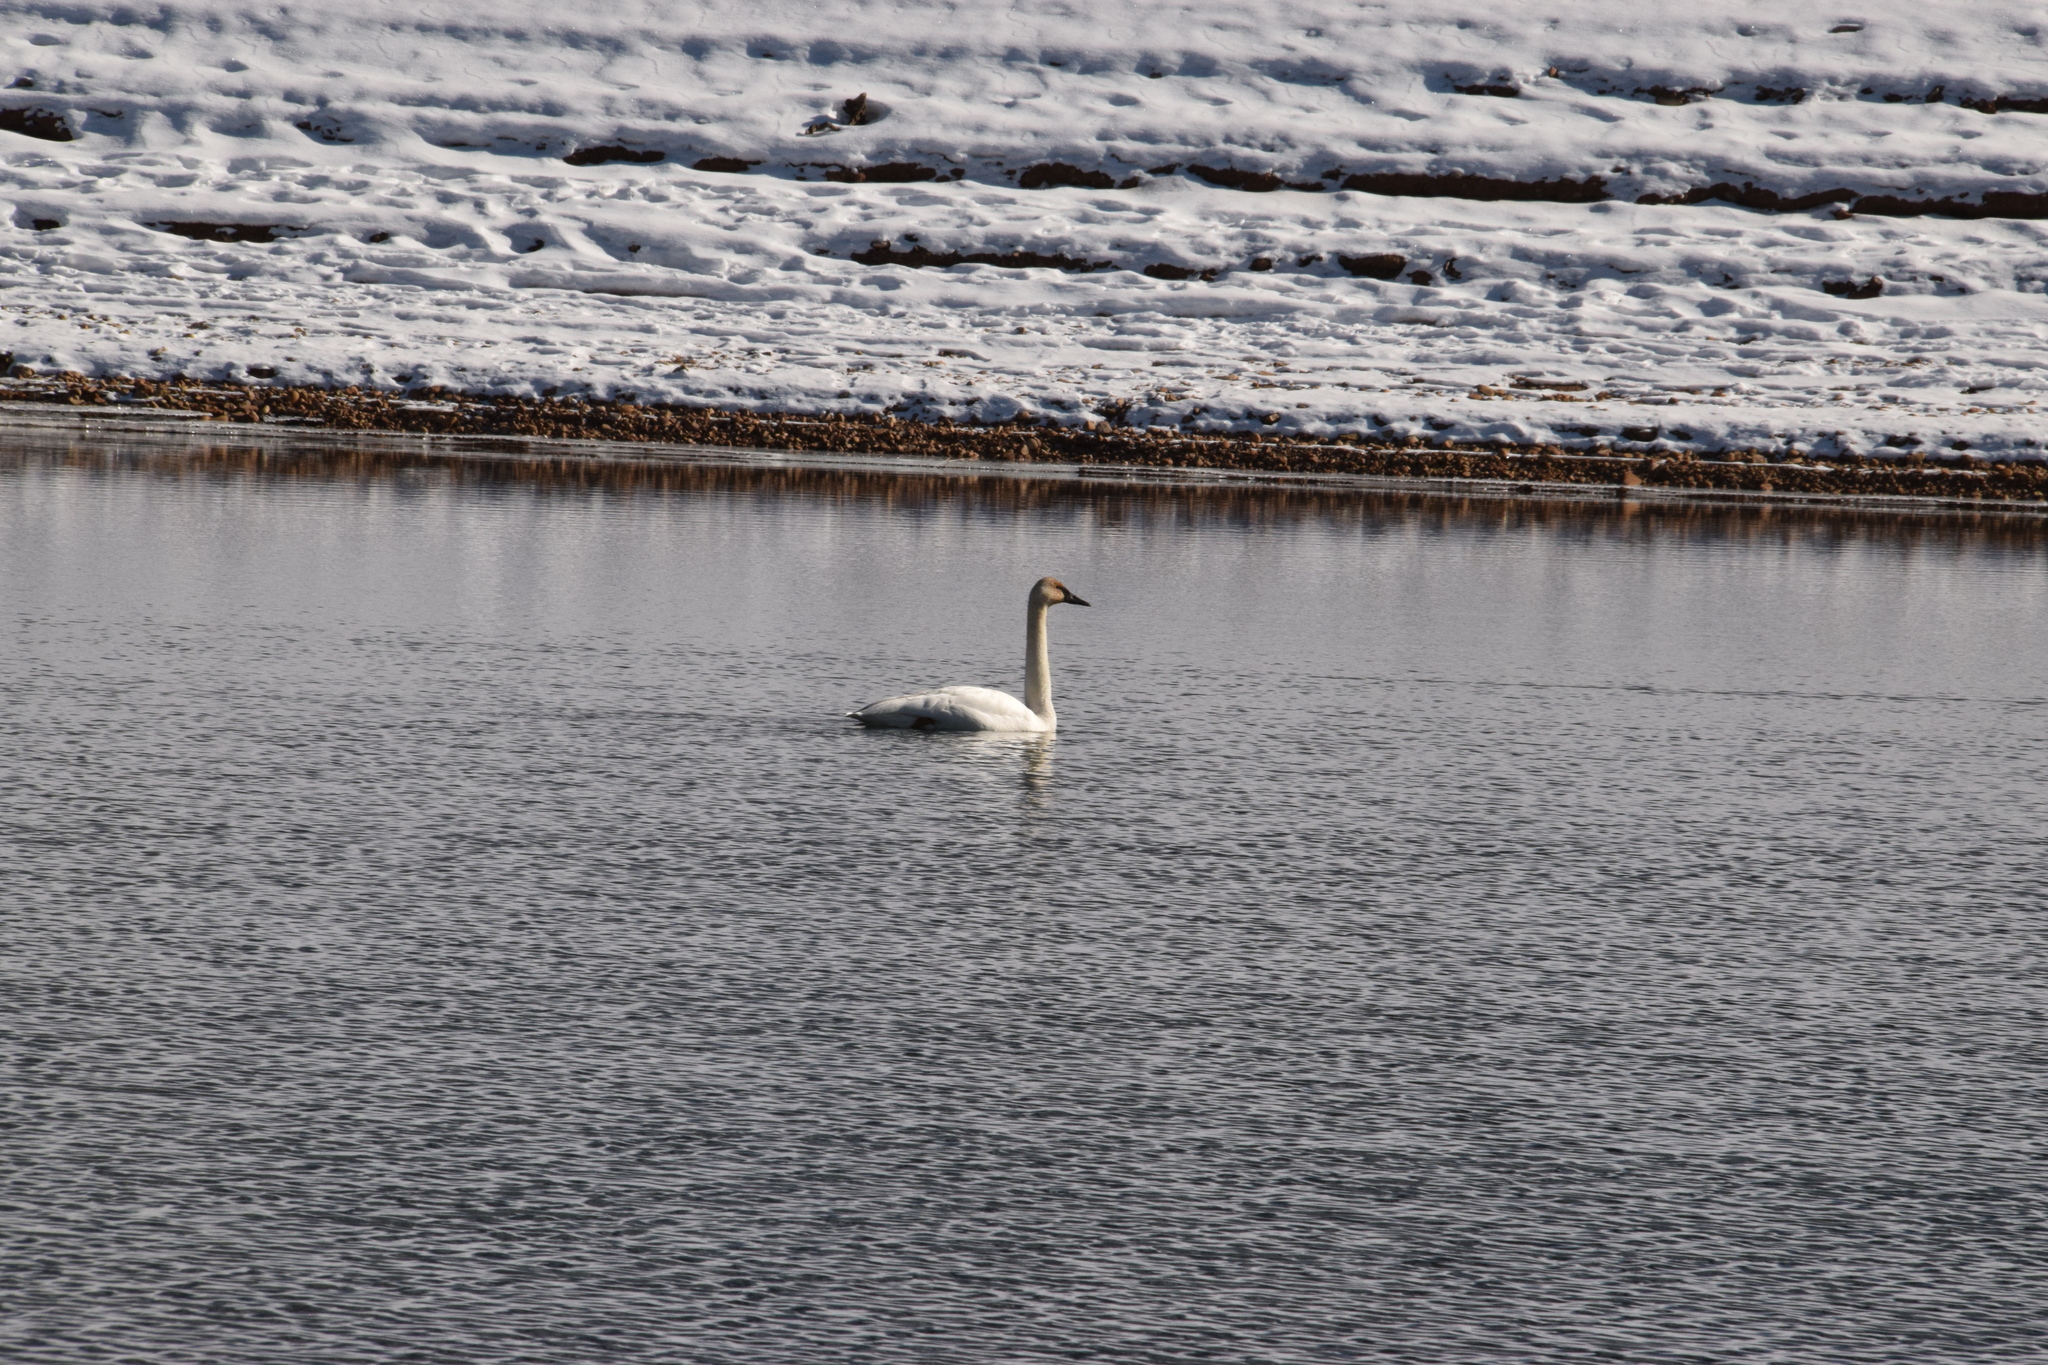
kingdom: Animalia
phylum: Chordata
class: Aves
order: Anseriformes
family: Anatidae
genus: Cygnus
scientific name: Cygnus buccinator
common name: Trumpeter swan
